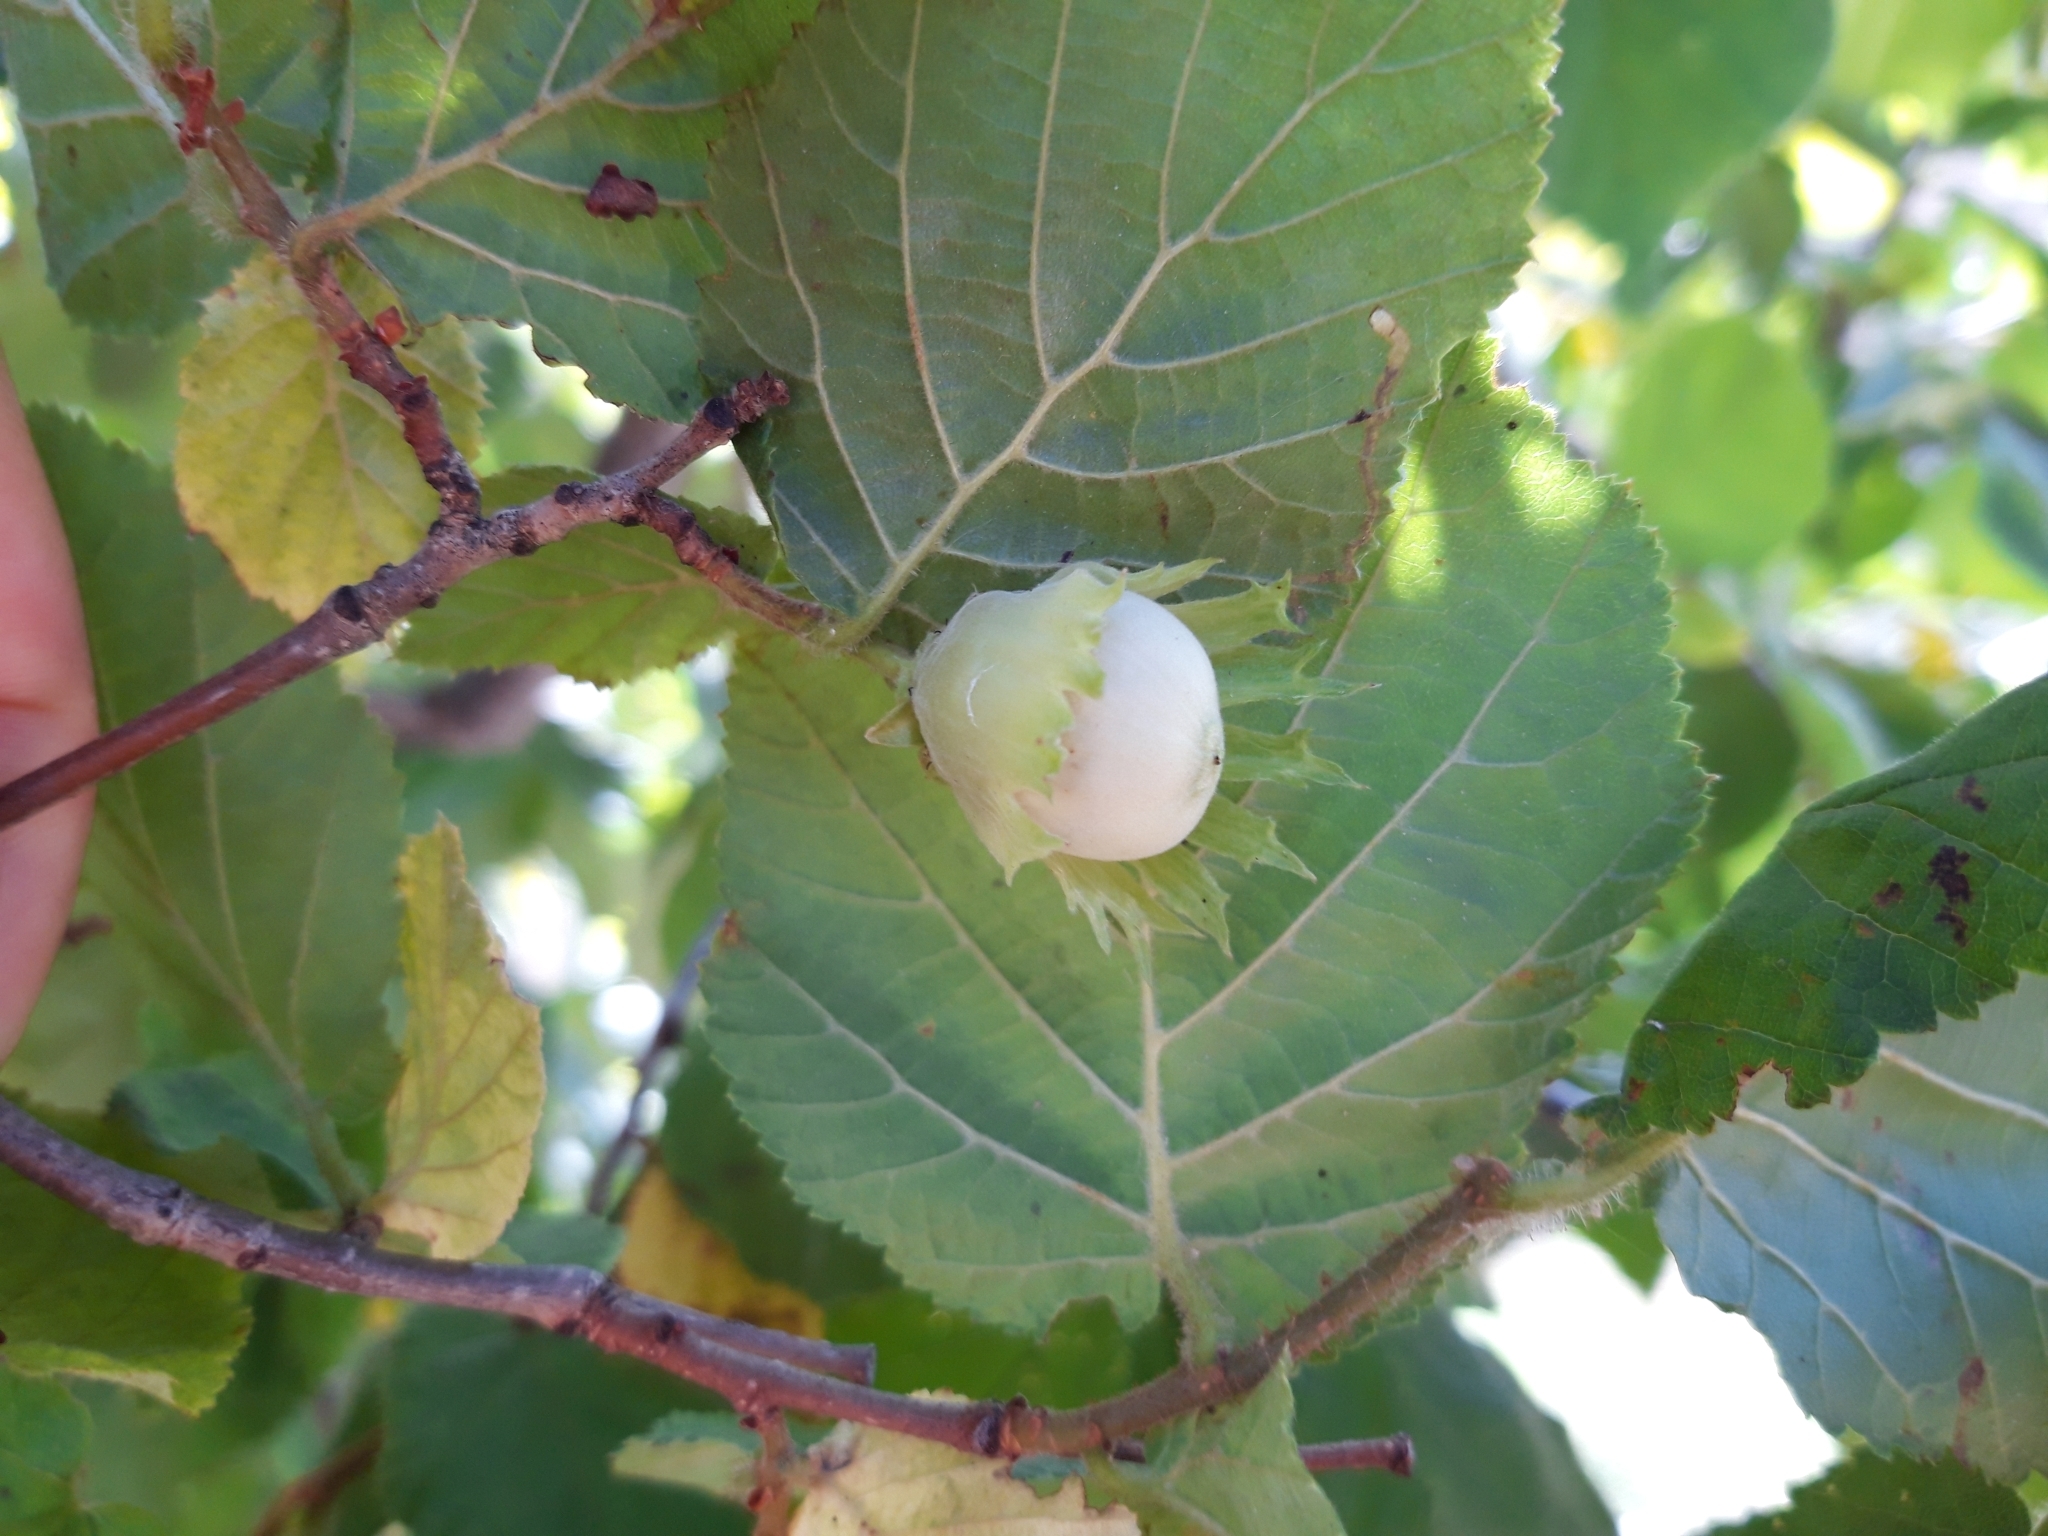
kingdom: Plantae
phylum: Tracheophyta
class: Magnoliopsida
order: Fagales
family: Betulaceae
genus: Corylus
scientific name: Corylus avellana
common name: European hazel
